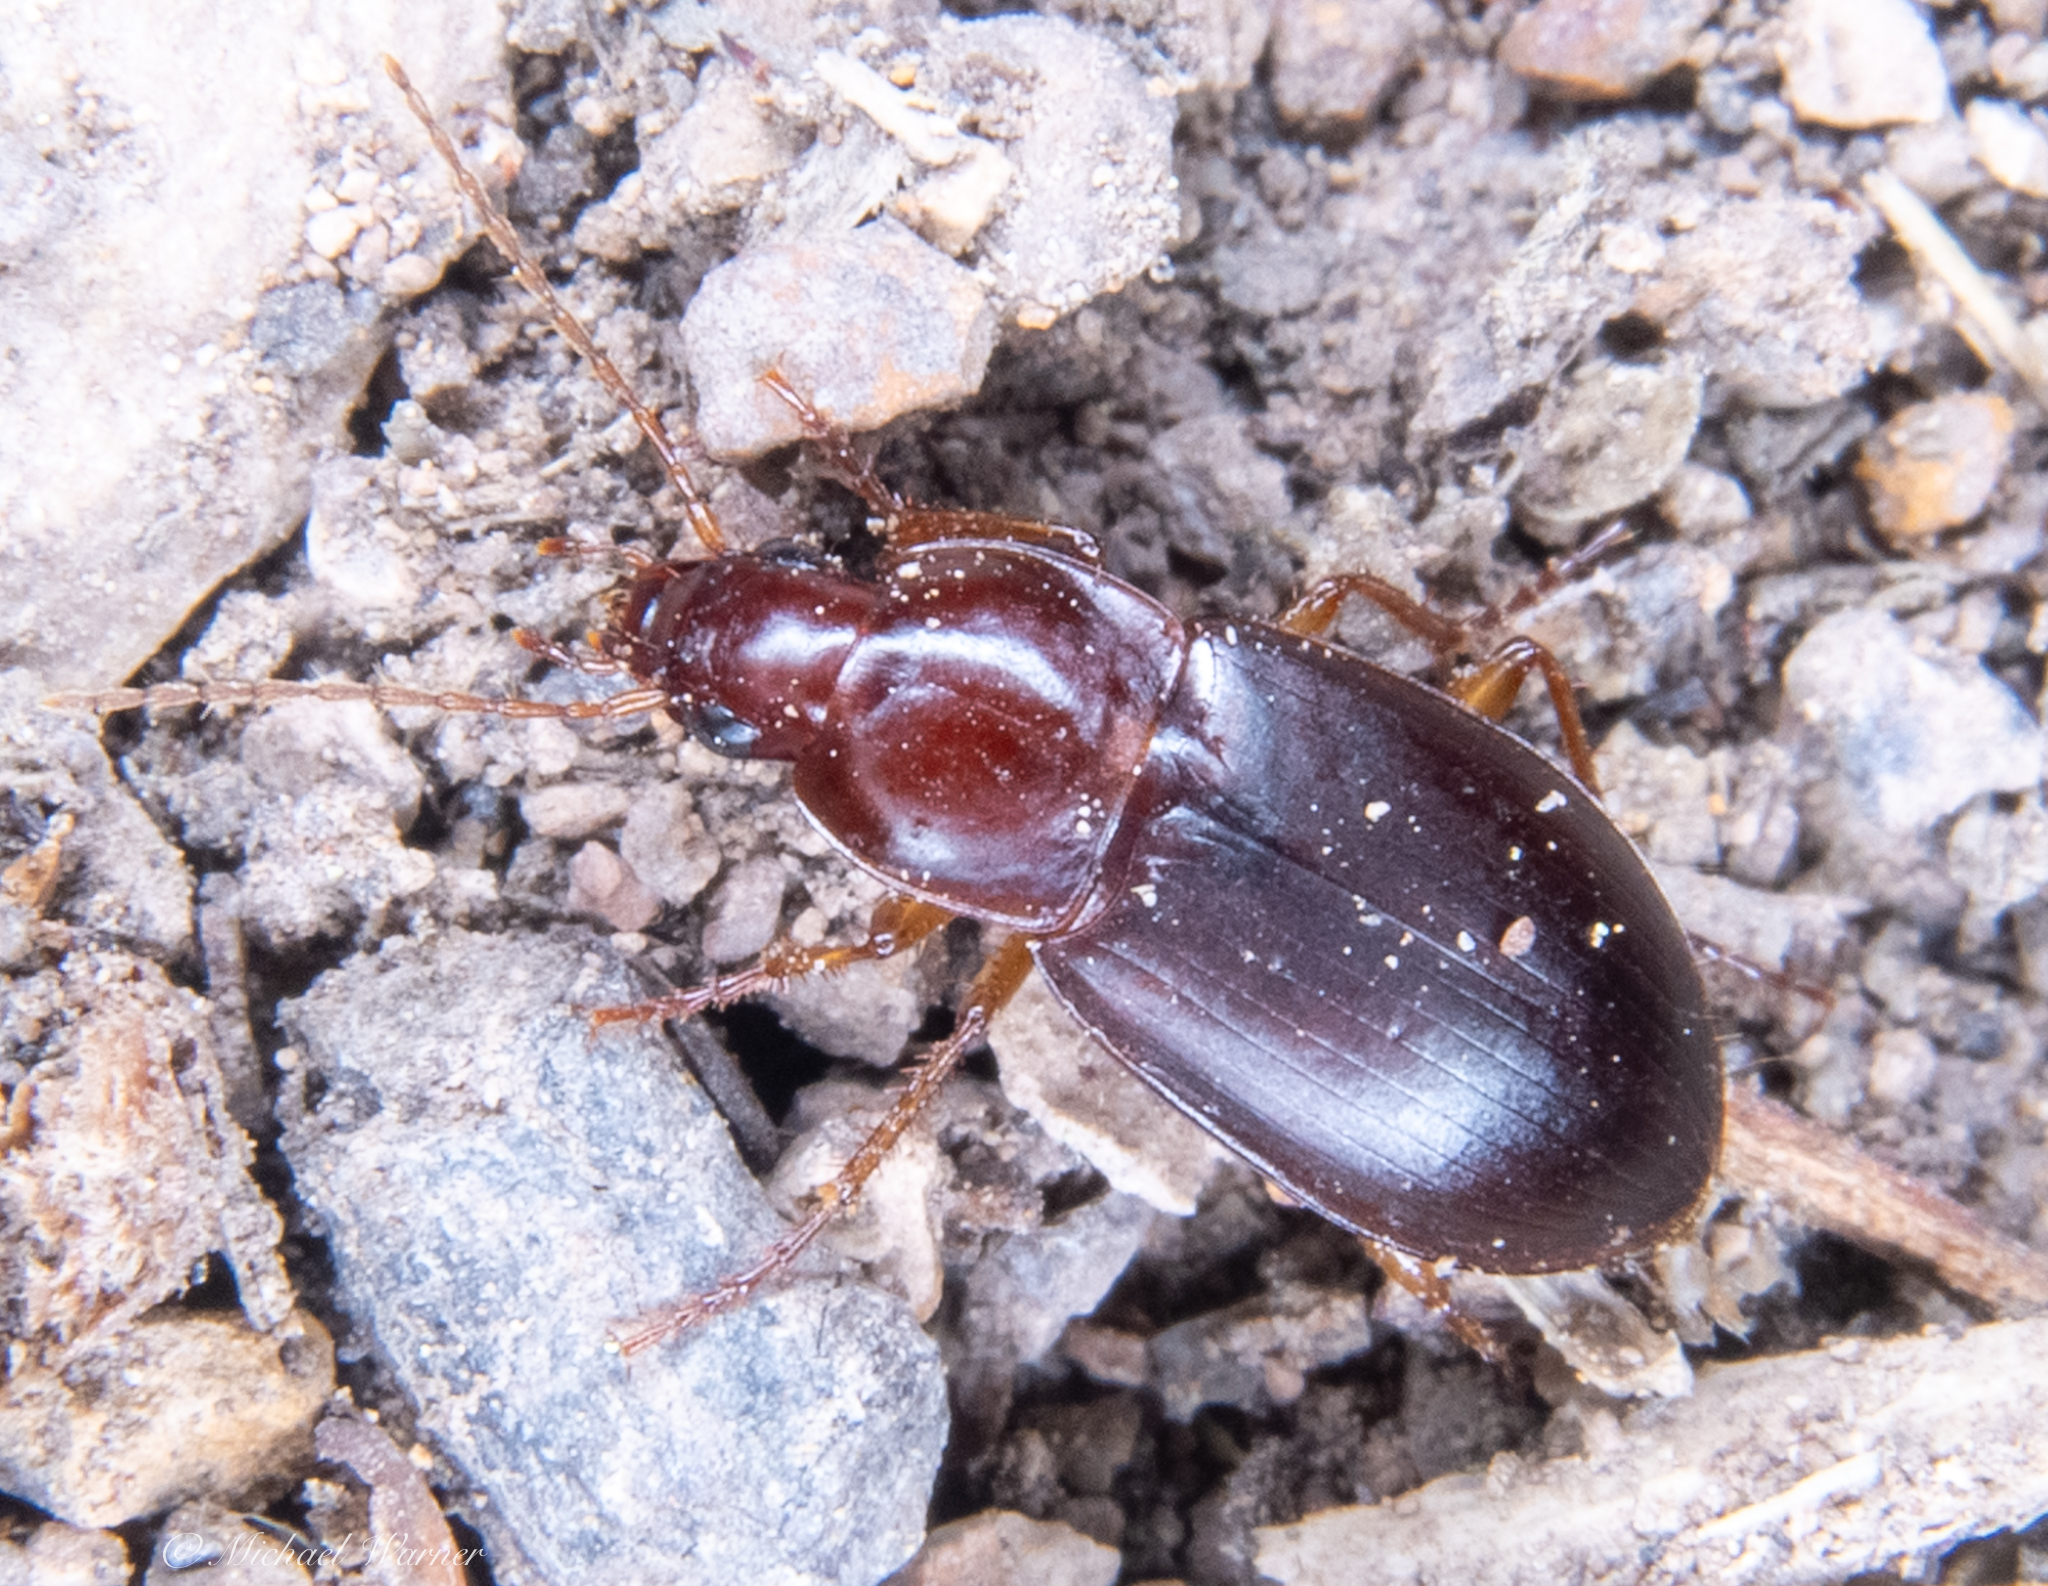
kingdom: Animalia
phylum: Arthropoda
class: Insecta
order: Coleoptera
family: Carabidae
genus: Calathus
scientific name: Calathus ruficollis
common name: Red-collared harp ground beetle
